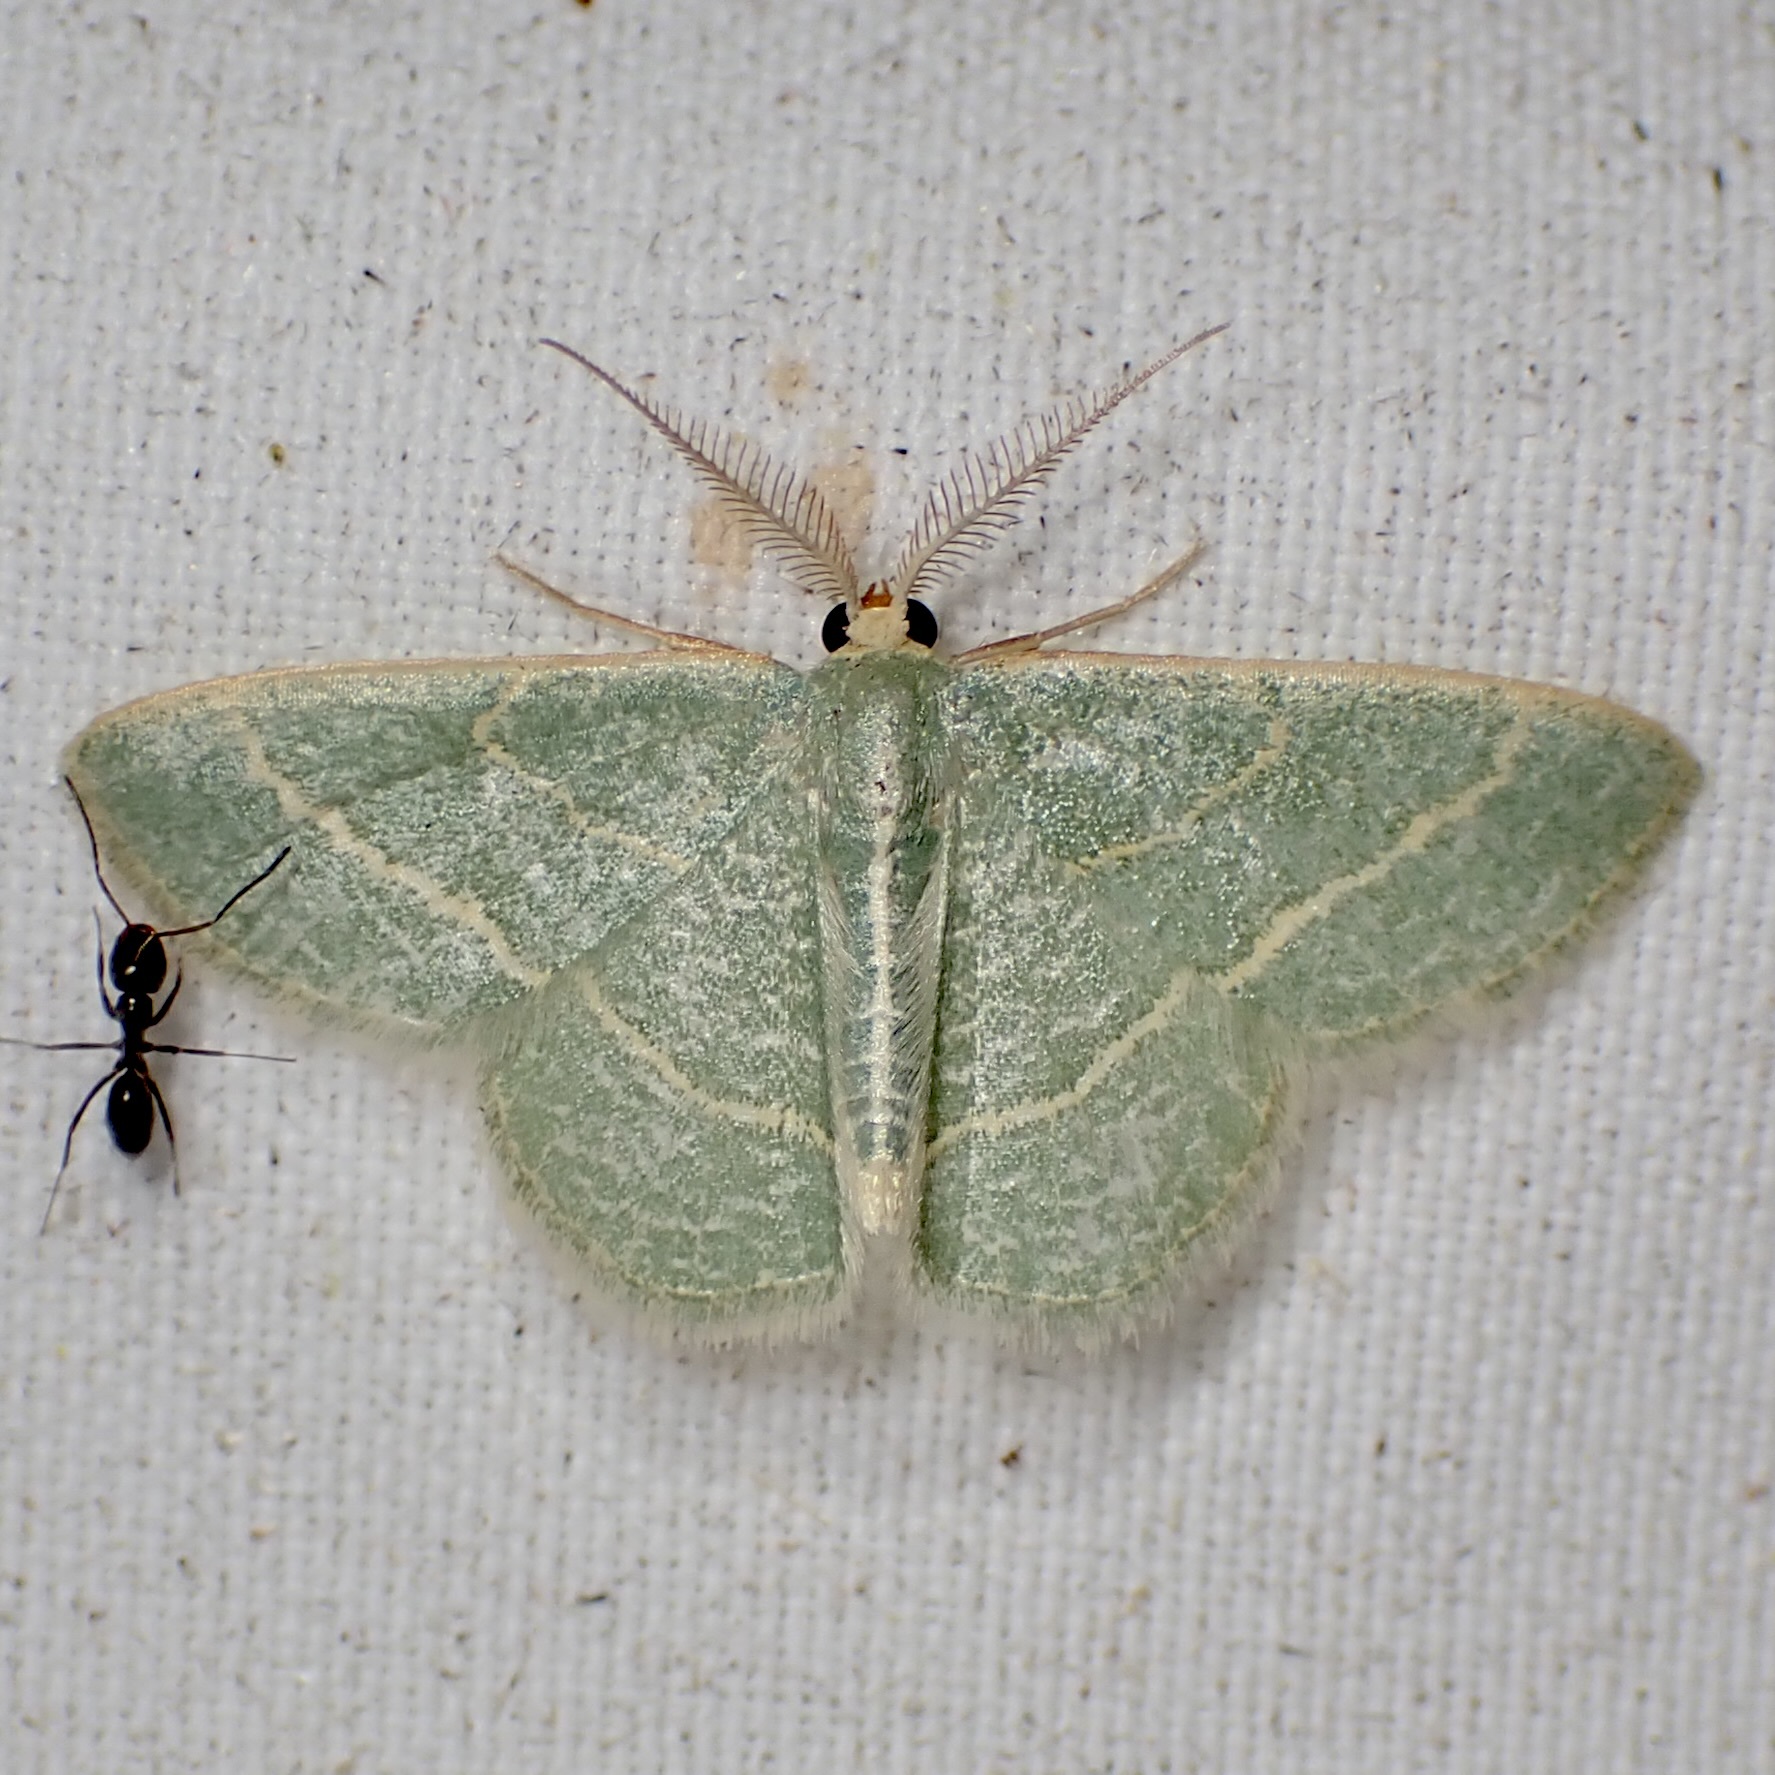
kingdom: Animalia
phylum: Arthropoda
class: Insecta
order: Lepidoptera
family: Geometridae
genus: Chlorochlamys
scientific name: Chlorochlamys phyllinaria
